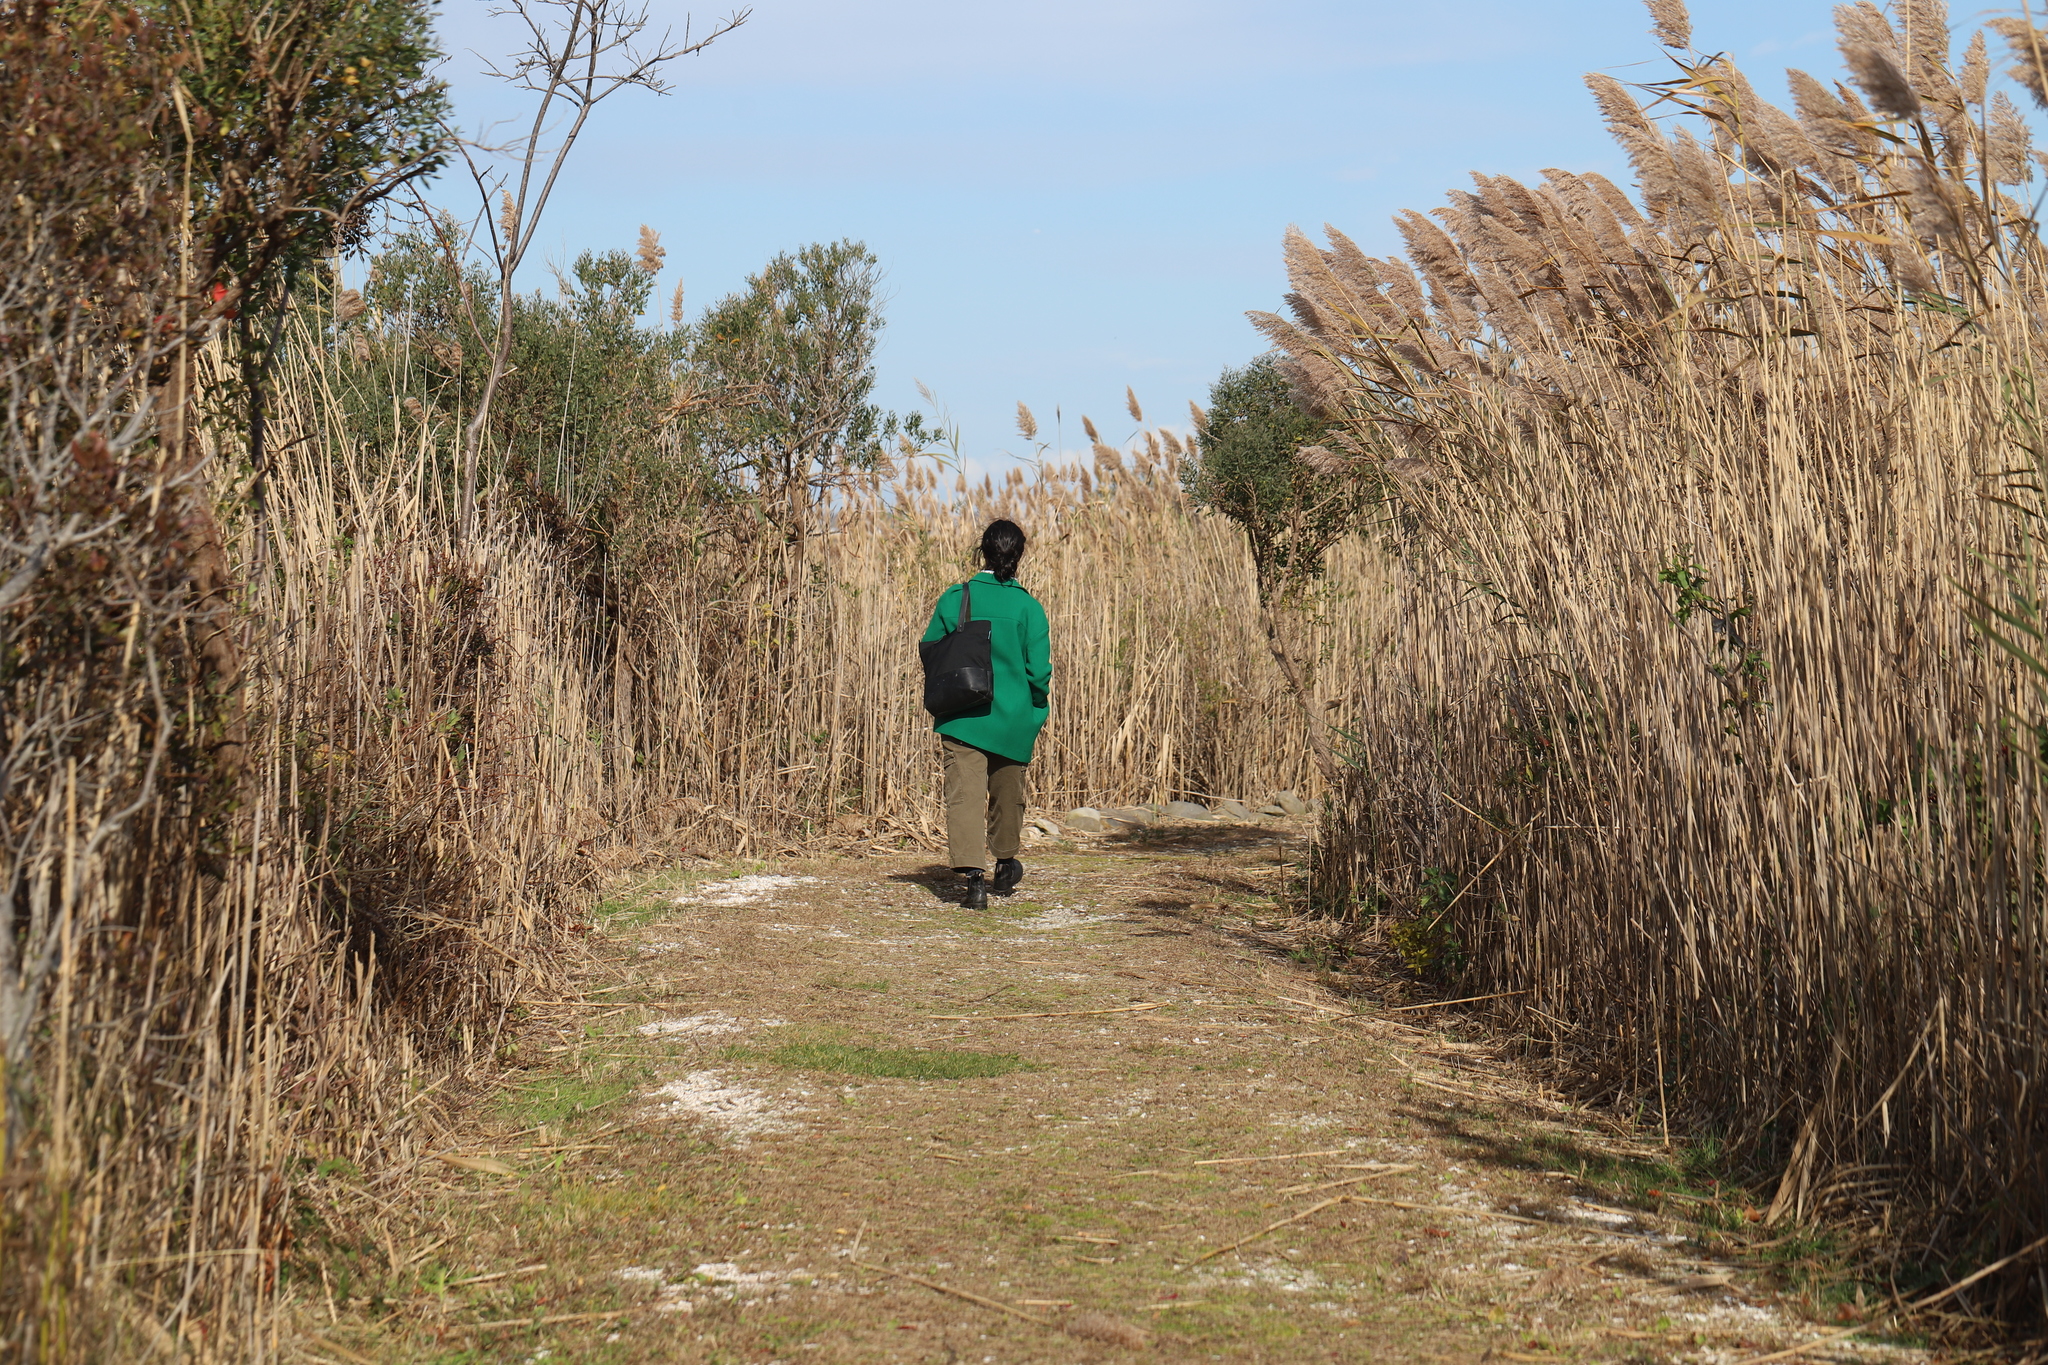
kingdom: Plantae
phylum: Tracheophyta
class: Liliopsida
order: Poales
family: Poaceae
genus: Phragmites
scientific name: Phragmites australis
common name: Common reed
